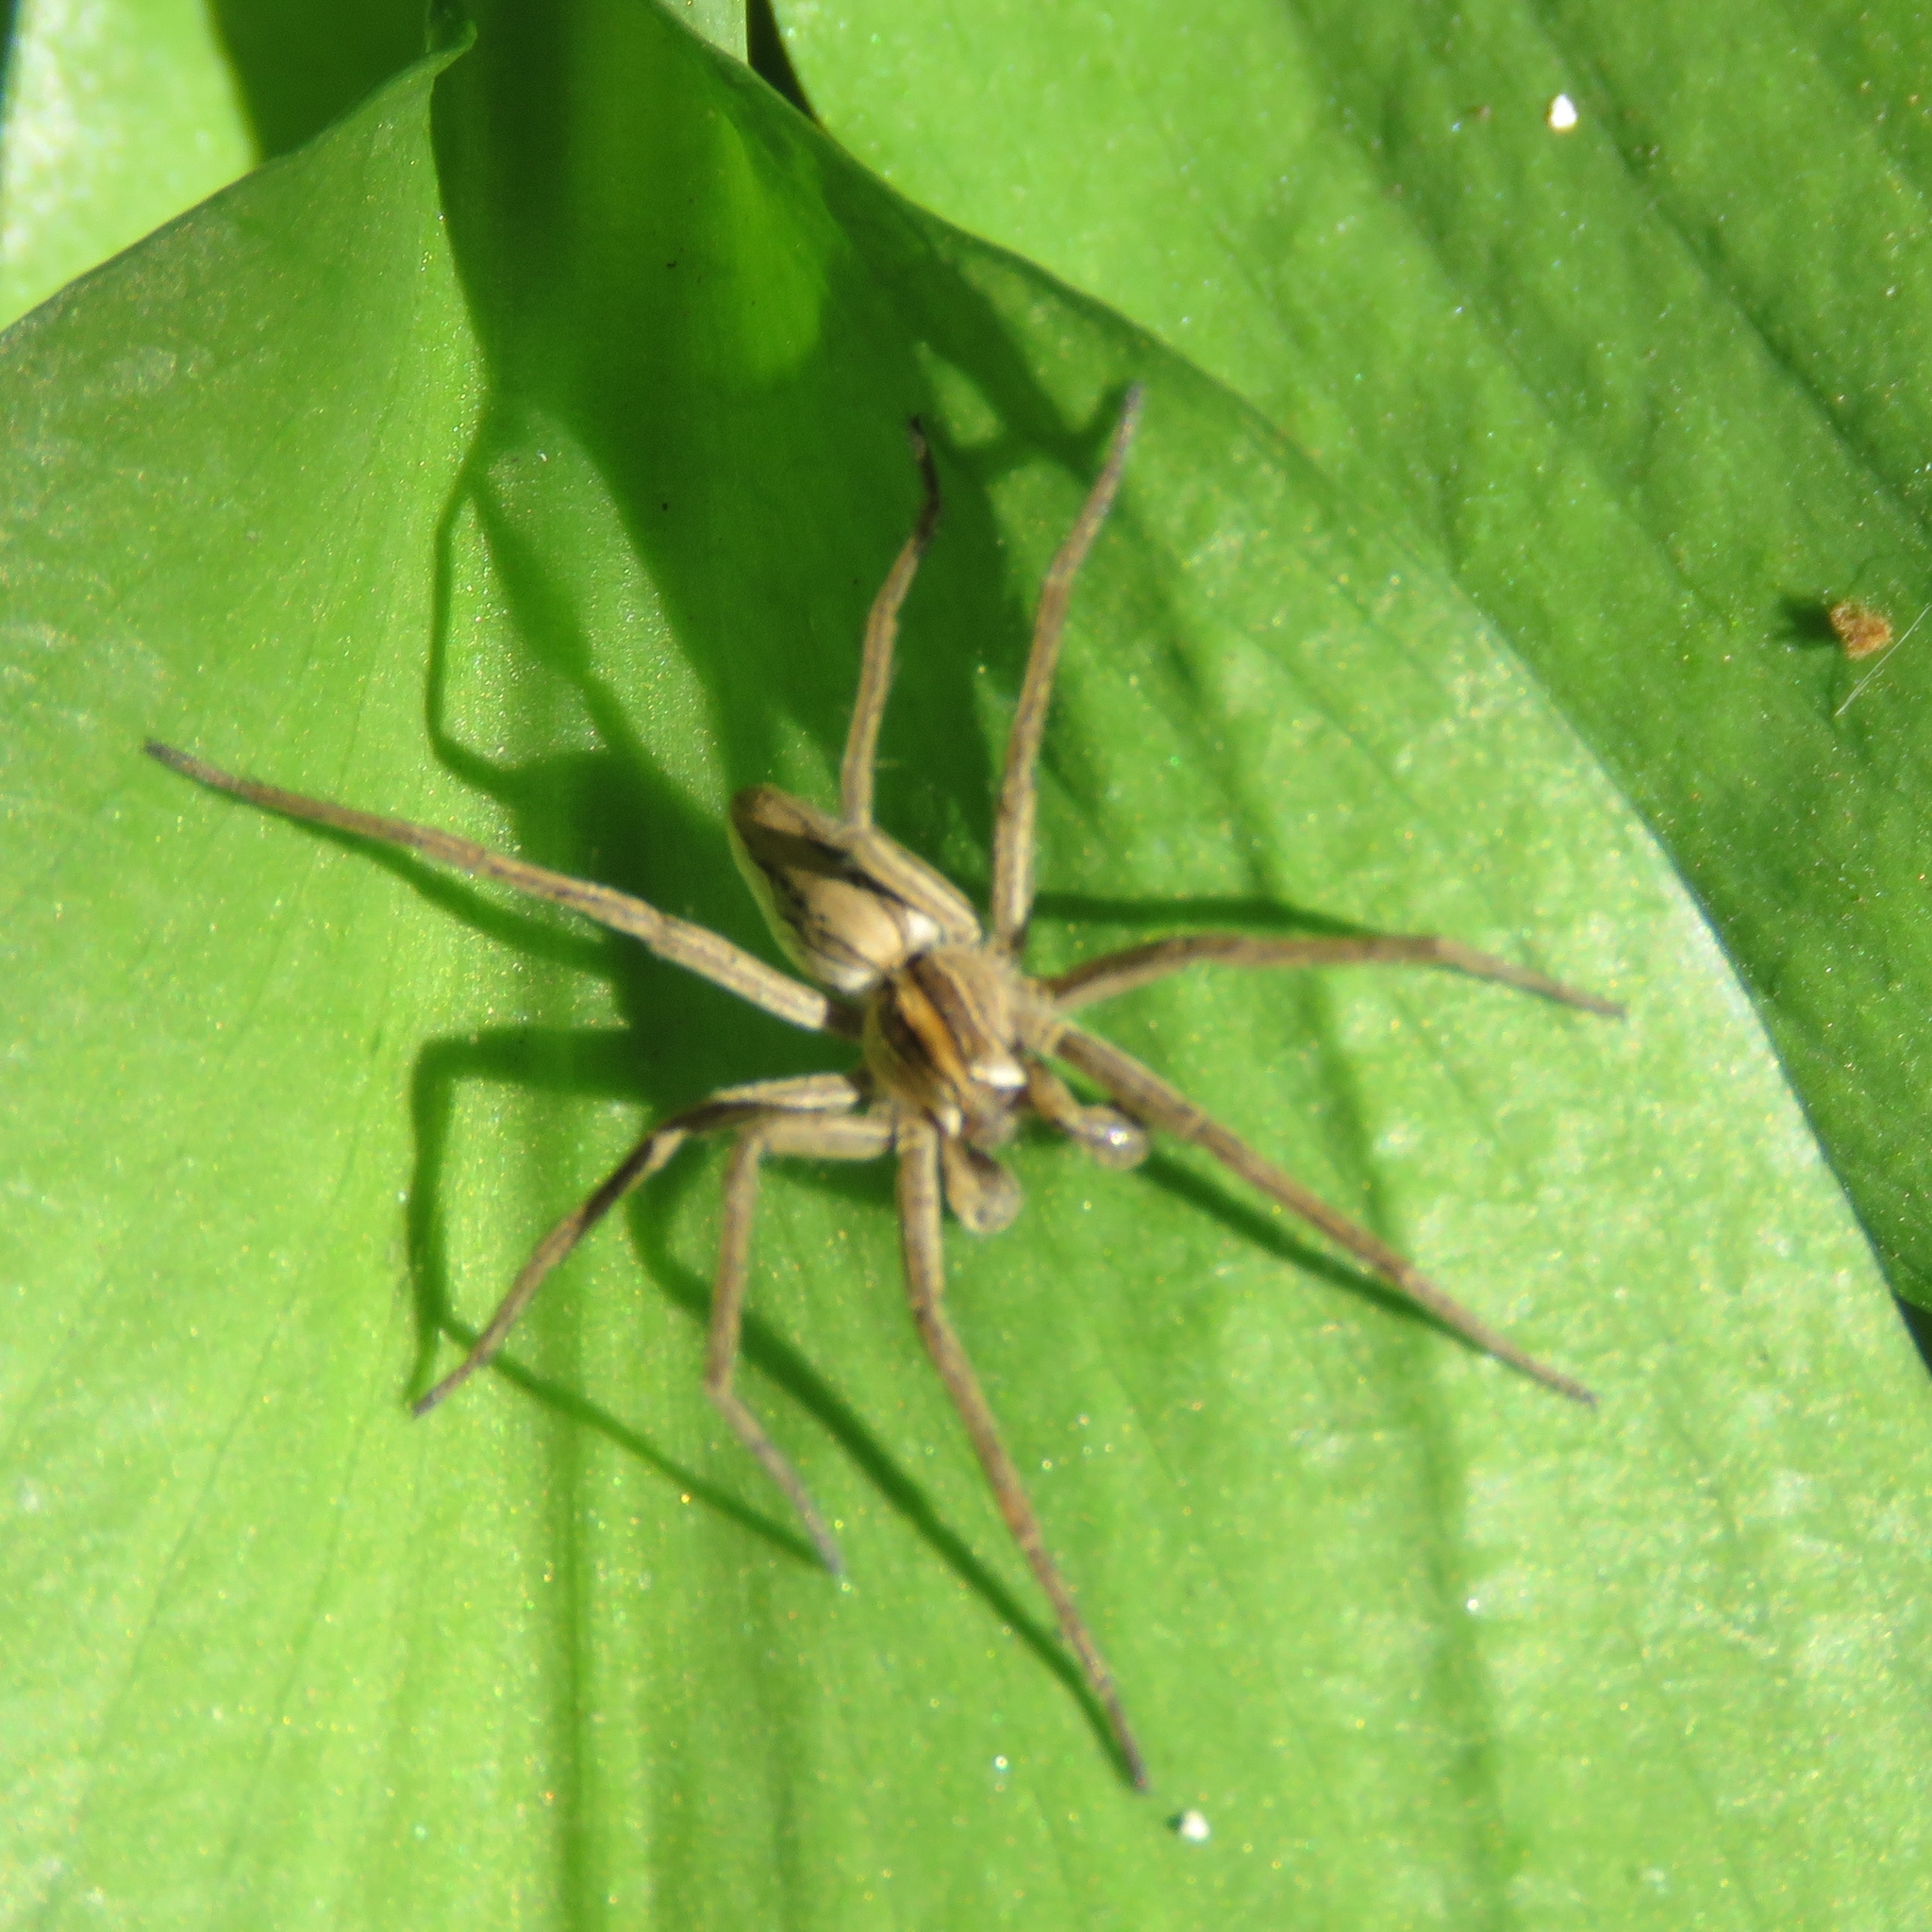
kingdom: Animalia
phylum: Arthropoda
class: Arachnida
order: Araneae
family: Pisauridae
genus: Pisaura
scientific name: Pisaura mirabilis
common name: Tent spider
